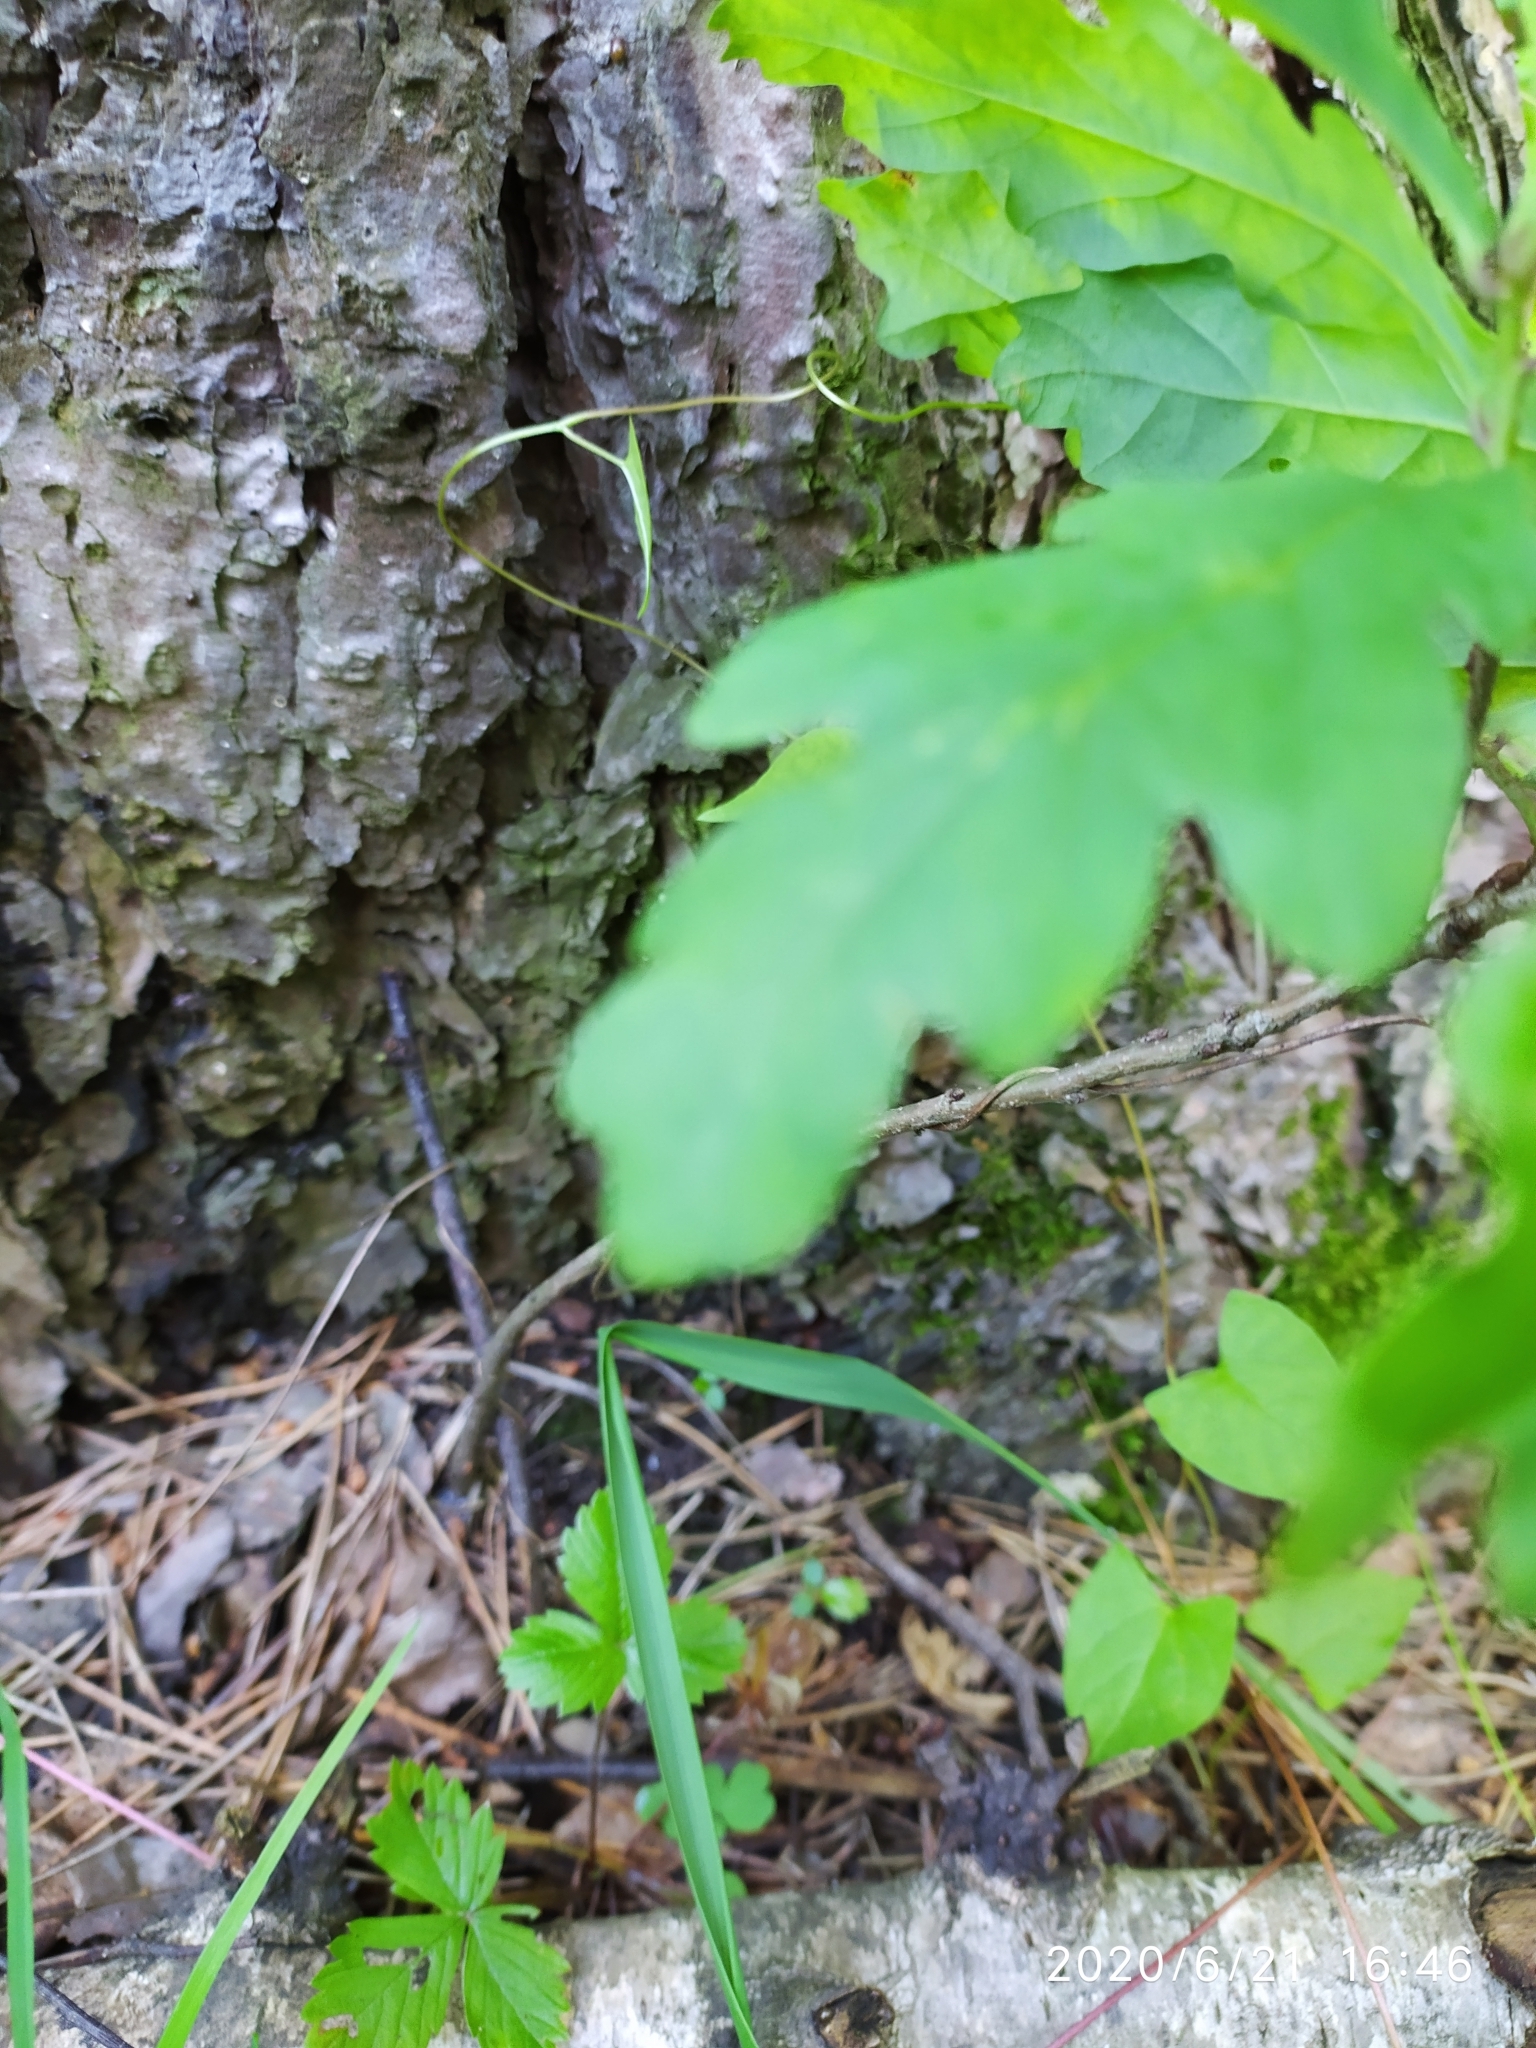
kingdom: Plantae
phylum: Tracheophyta
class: Magnoliopsida
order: Fagales
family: Fagaceae
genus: Quercus
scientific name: Quercus robur
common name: Pedunculate oak
